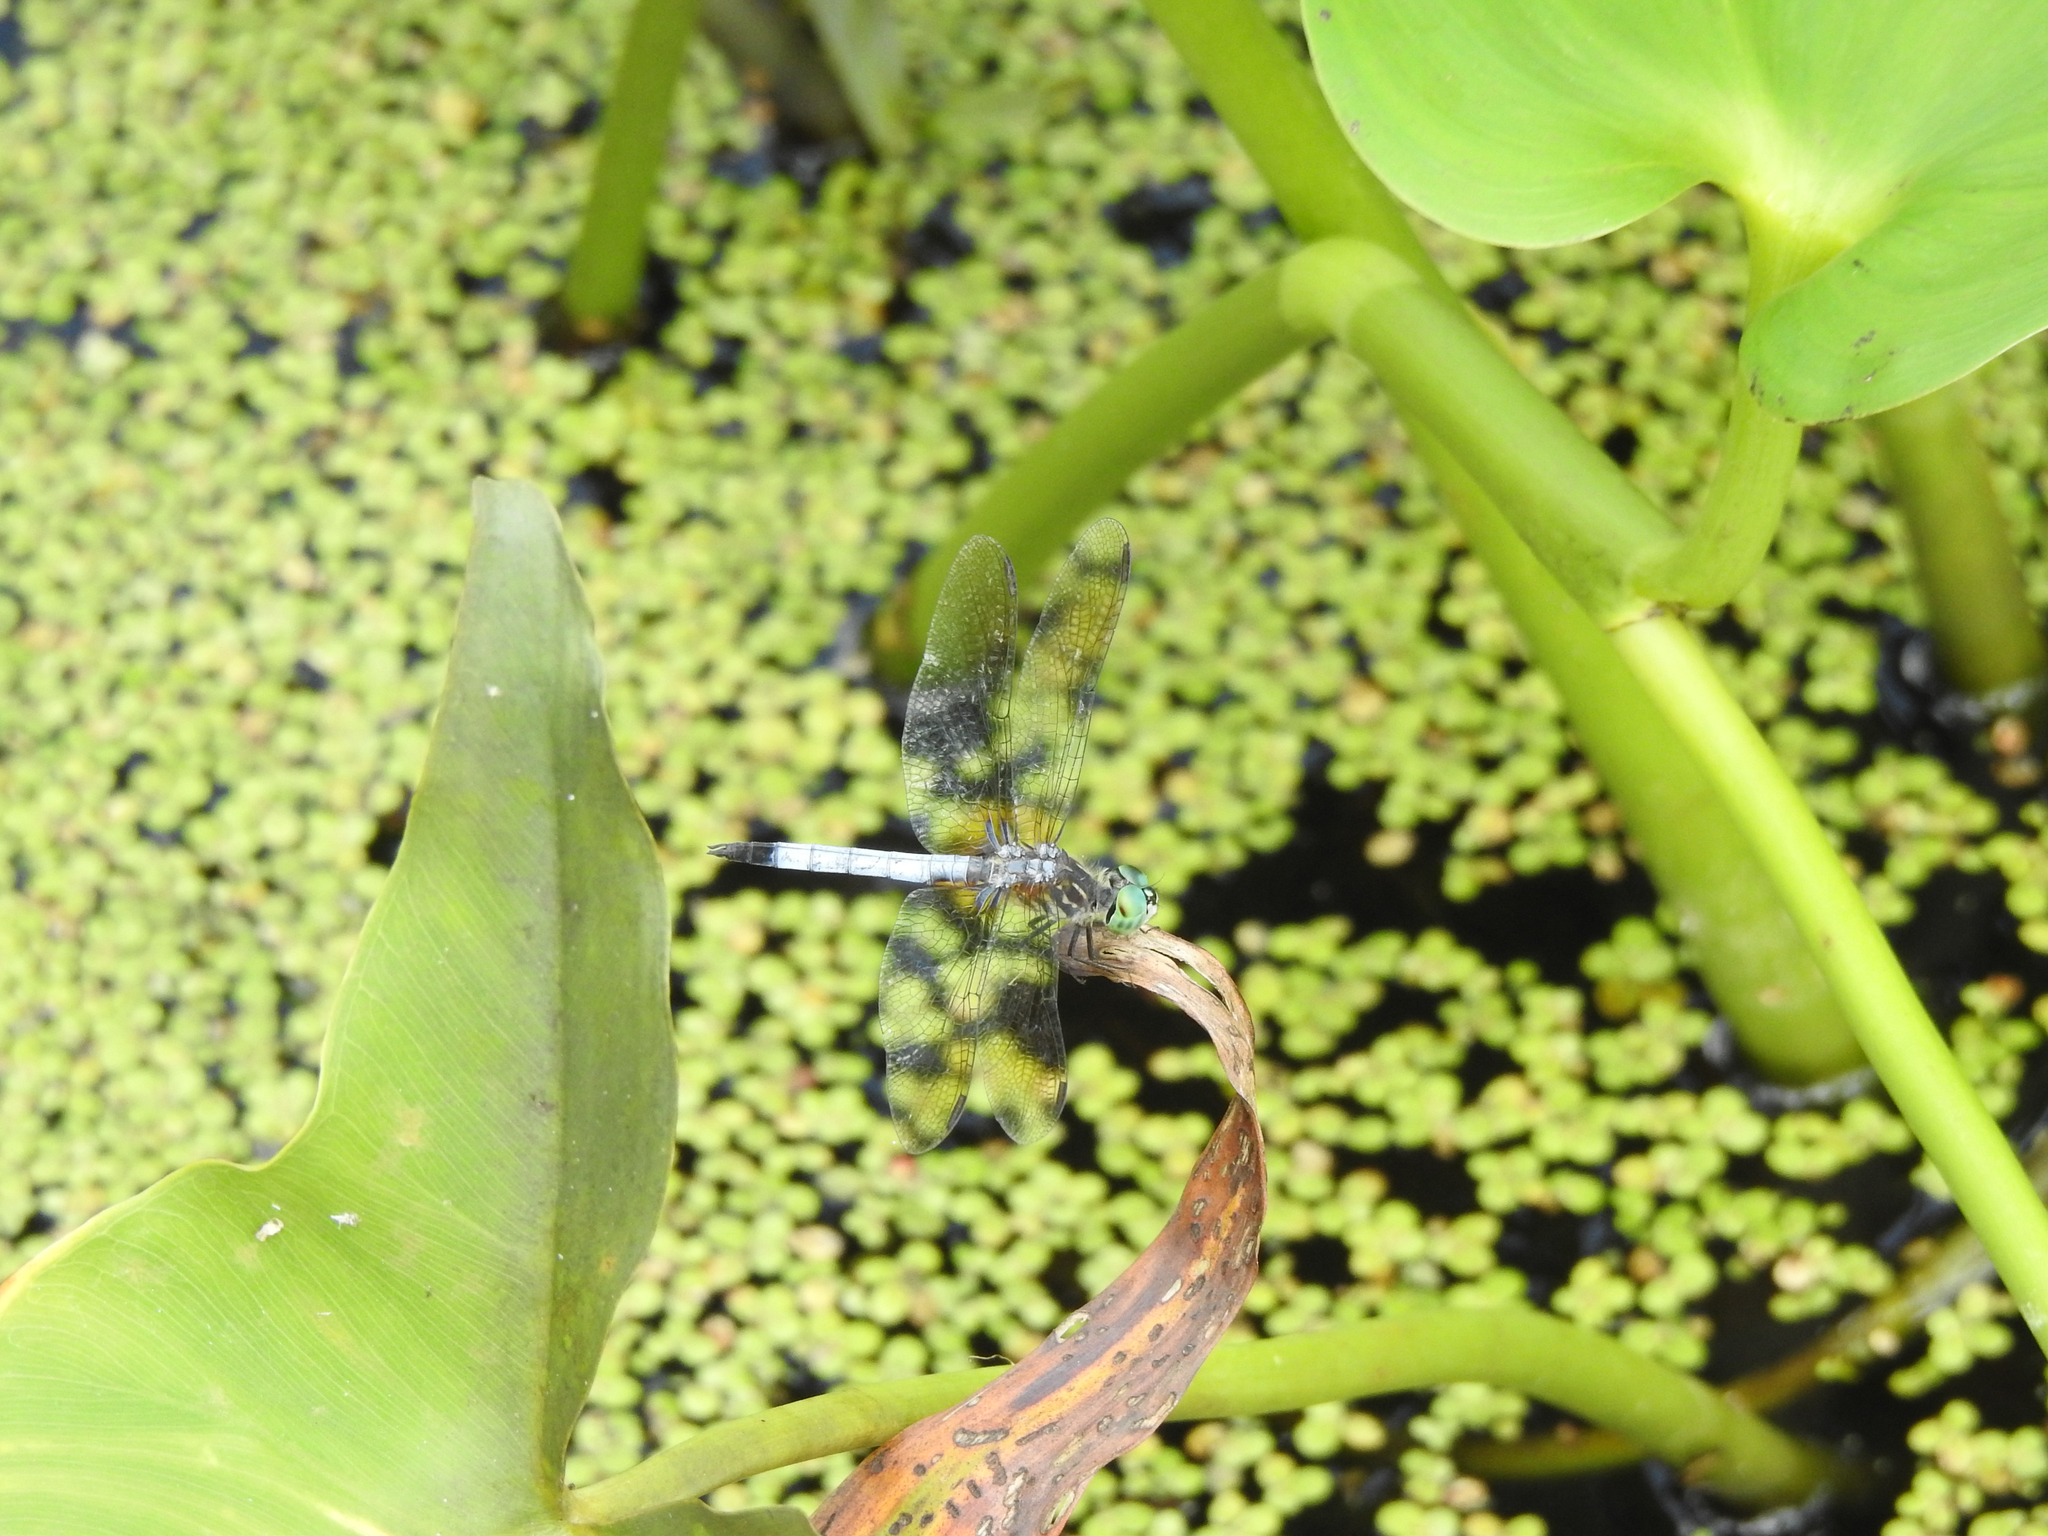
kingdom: Animalia
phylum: Arthropoda
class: Insecta
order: Odonata
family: Libellulidae
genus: Pachydiplax
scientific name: Pachydiplax longipennis
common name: Blue dasher
